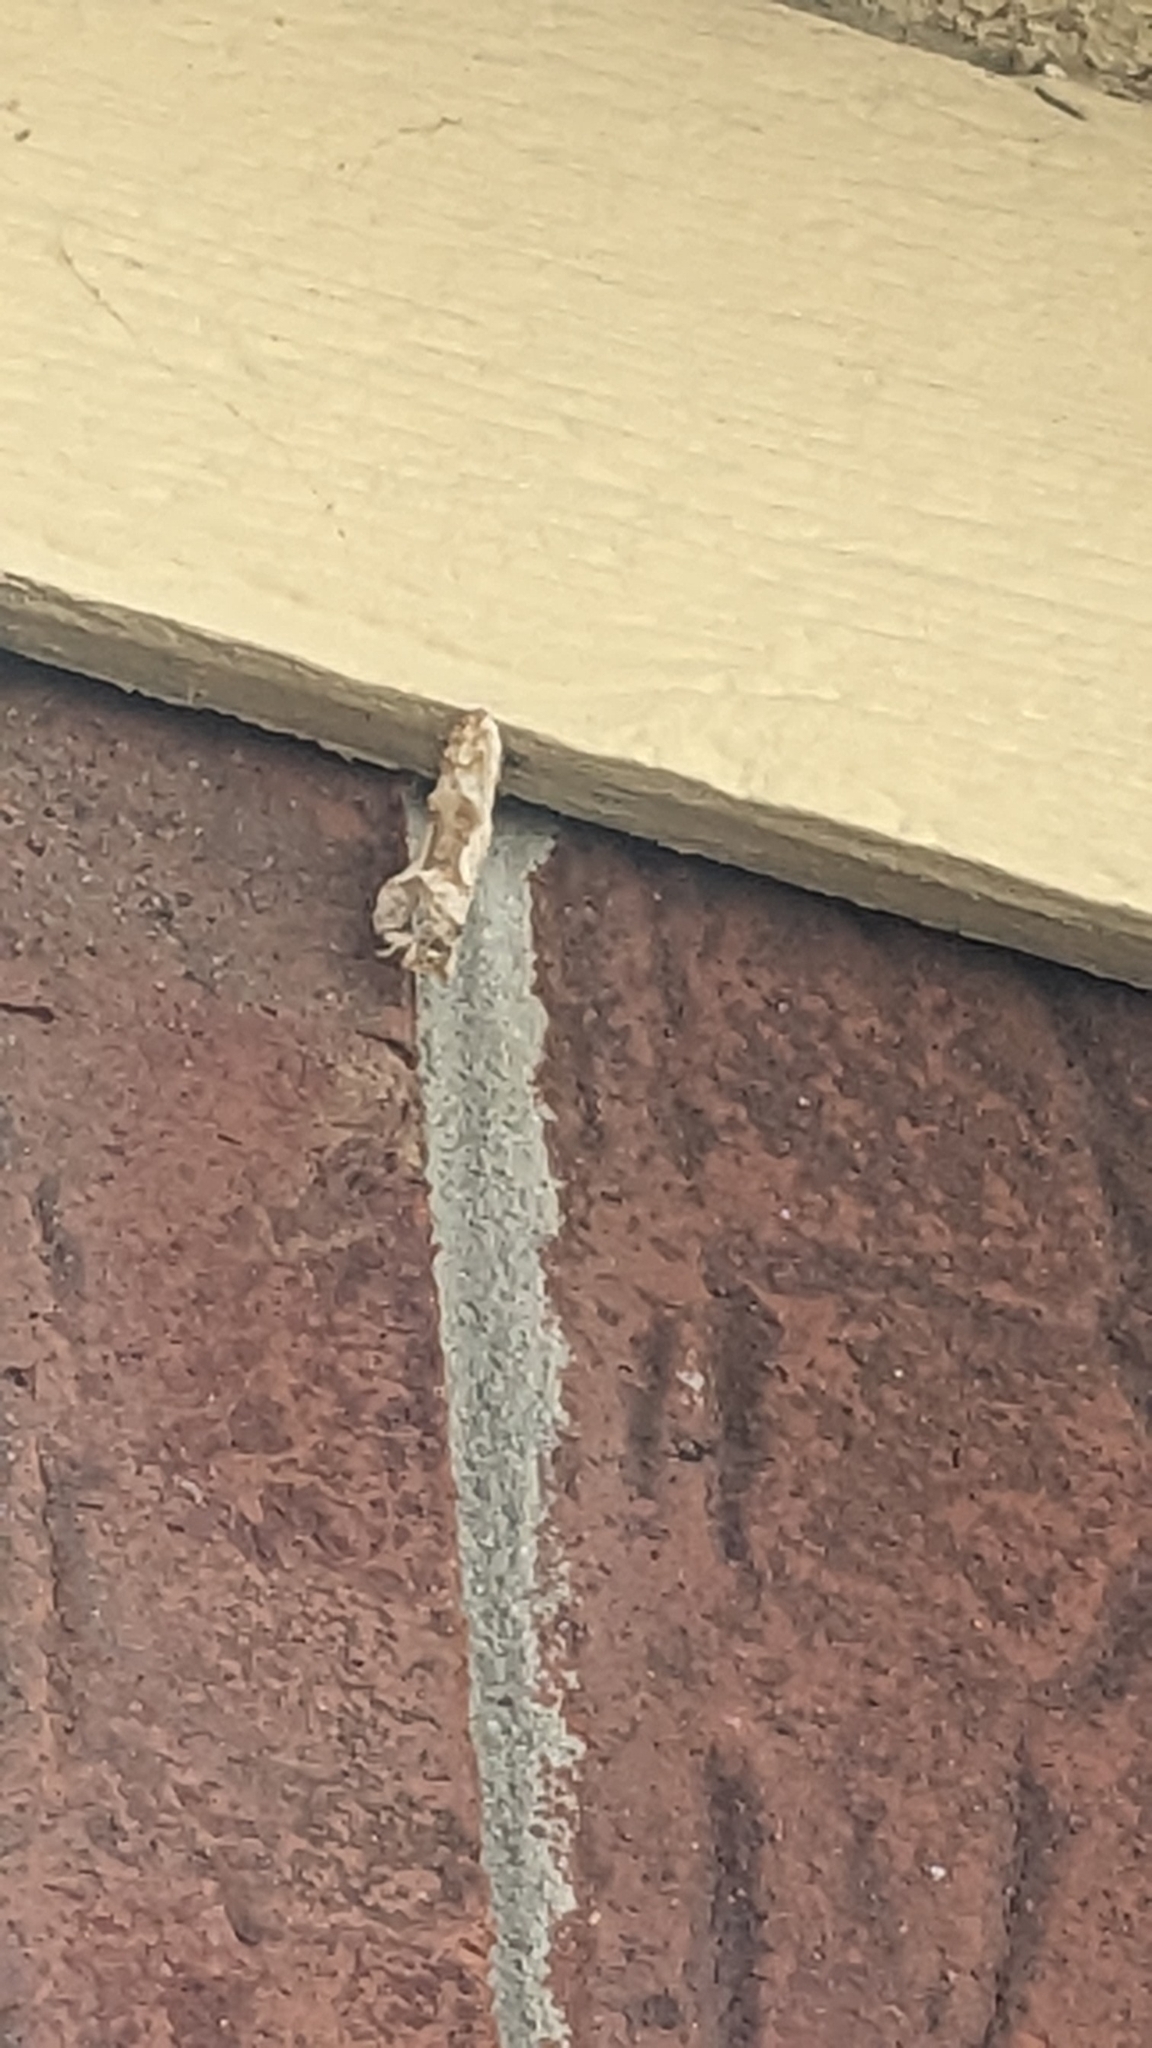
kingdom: Animalia
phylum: Arthropoda
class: Insecta
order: Lepidoptera
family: Nymphalidae
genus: Dione
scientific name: Dione vanillae
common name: Gulf fritillary
